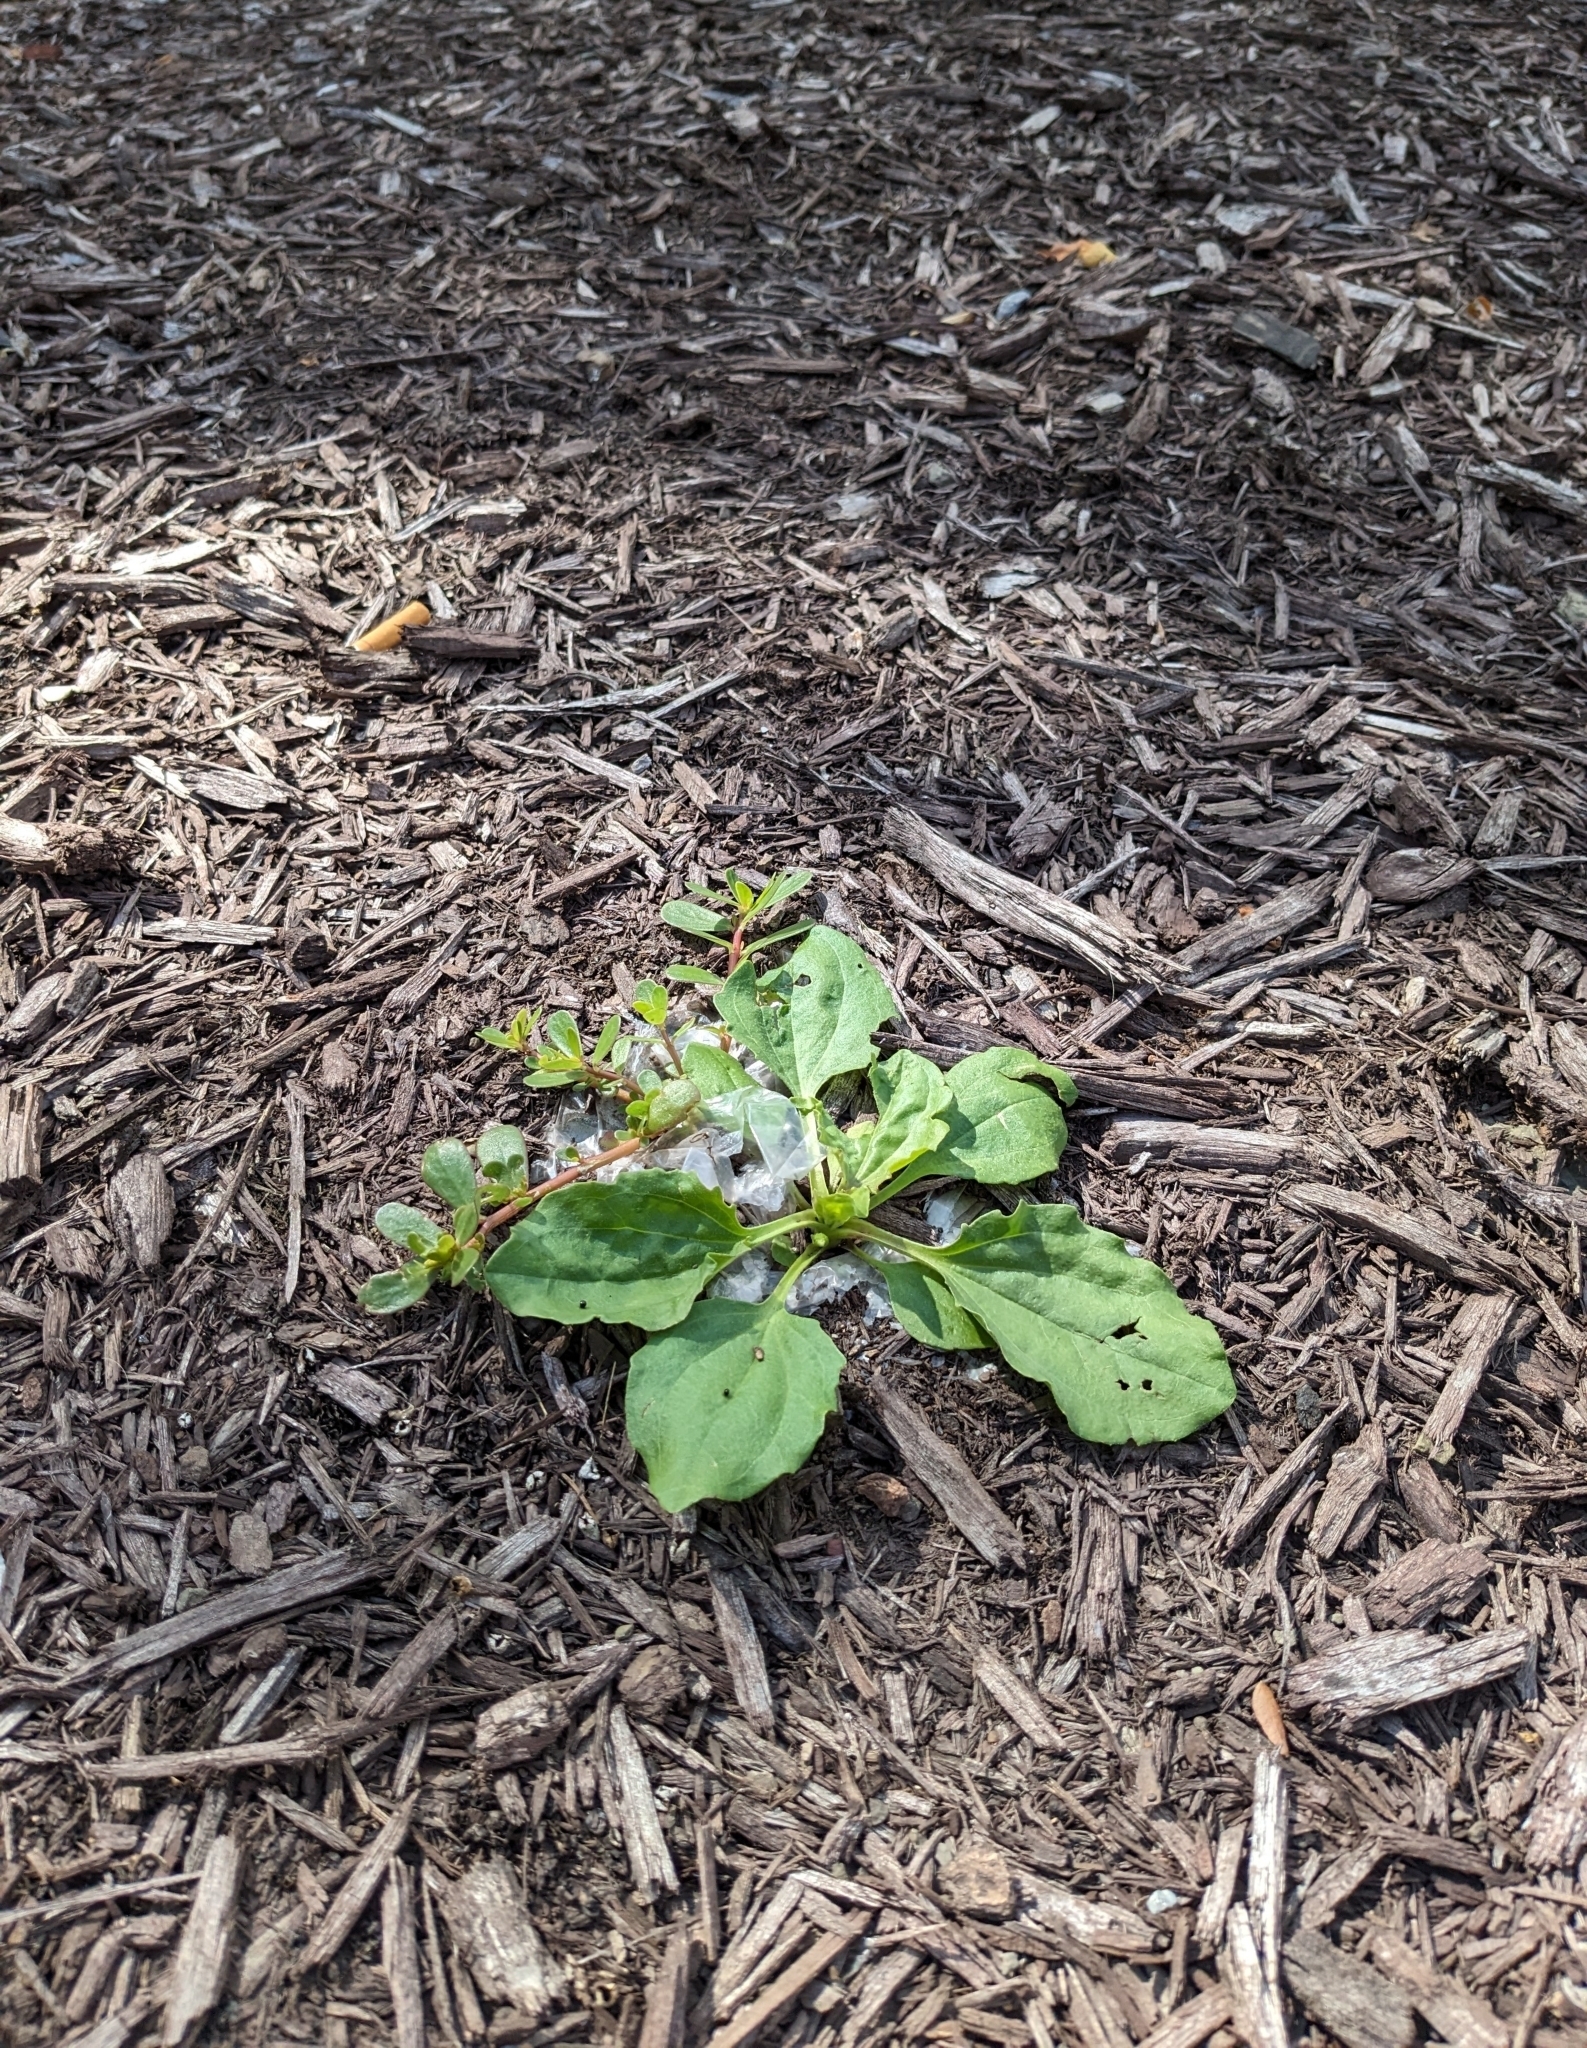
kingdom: Plantae
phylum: Tracheophyta
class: Magnoliopsida
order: Caryophyllales
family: Portulacaceae
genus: Portulaca
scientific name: Portulaca oleracea
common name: Common purslane
